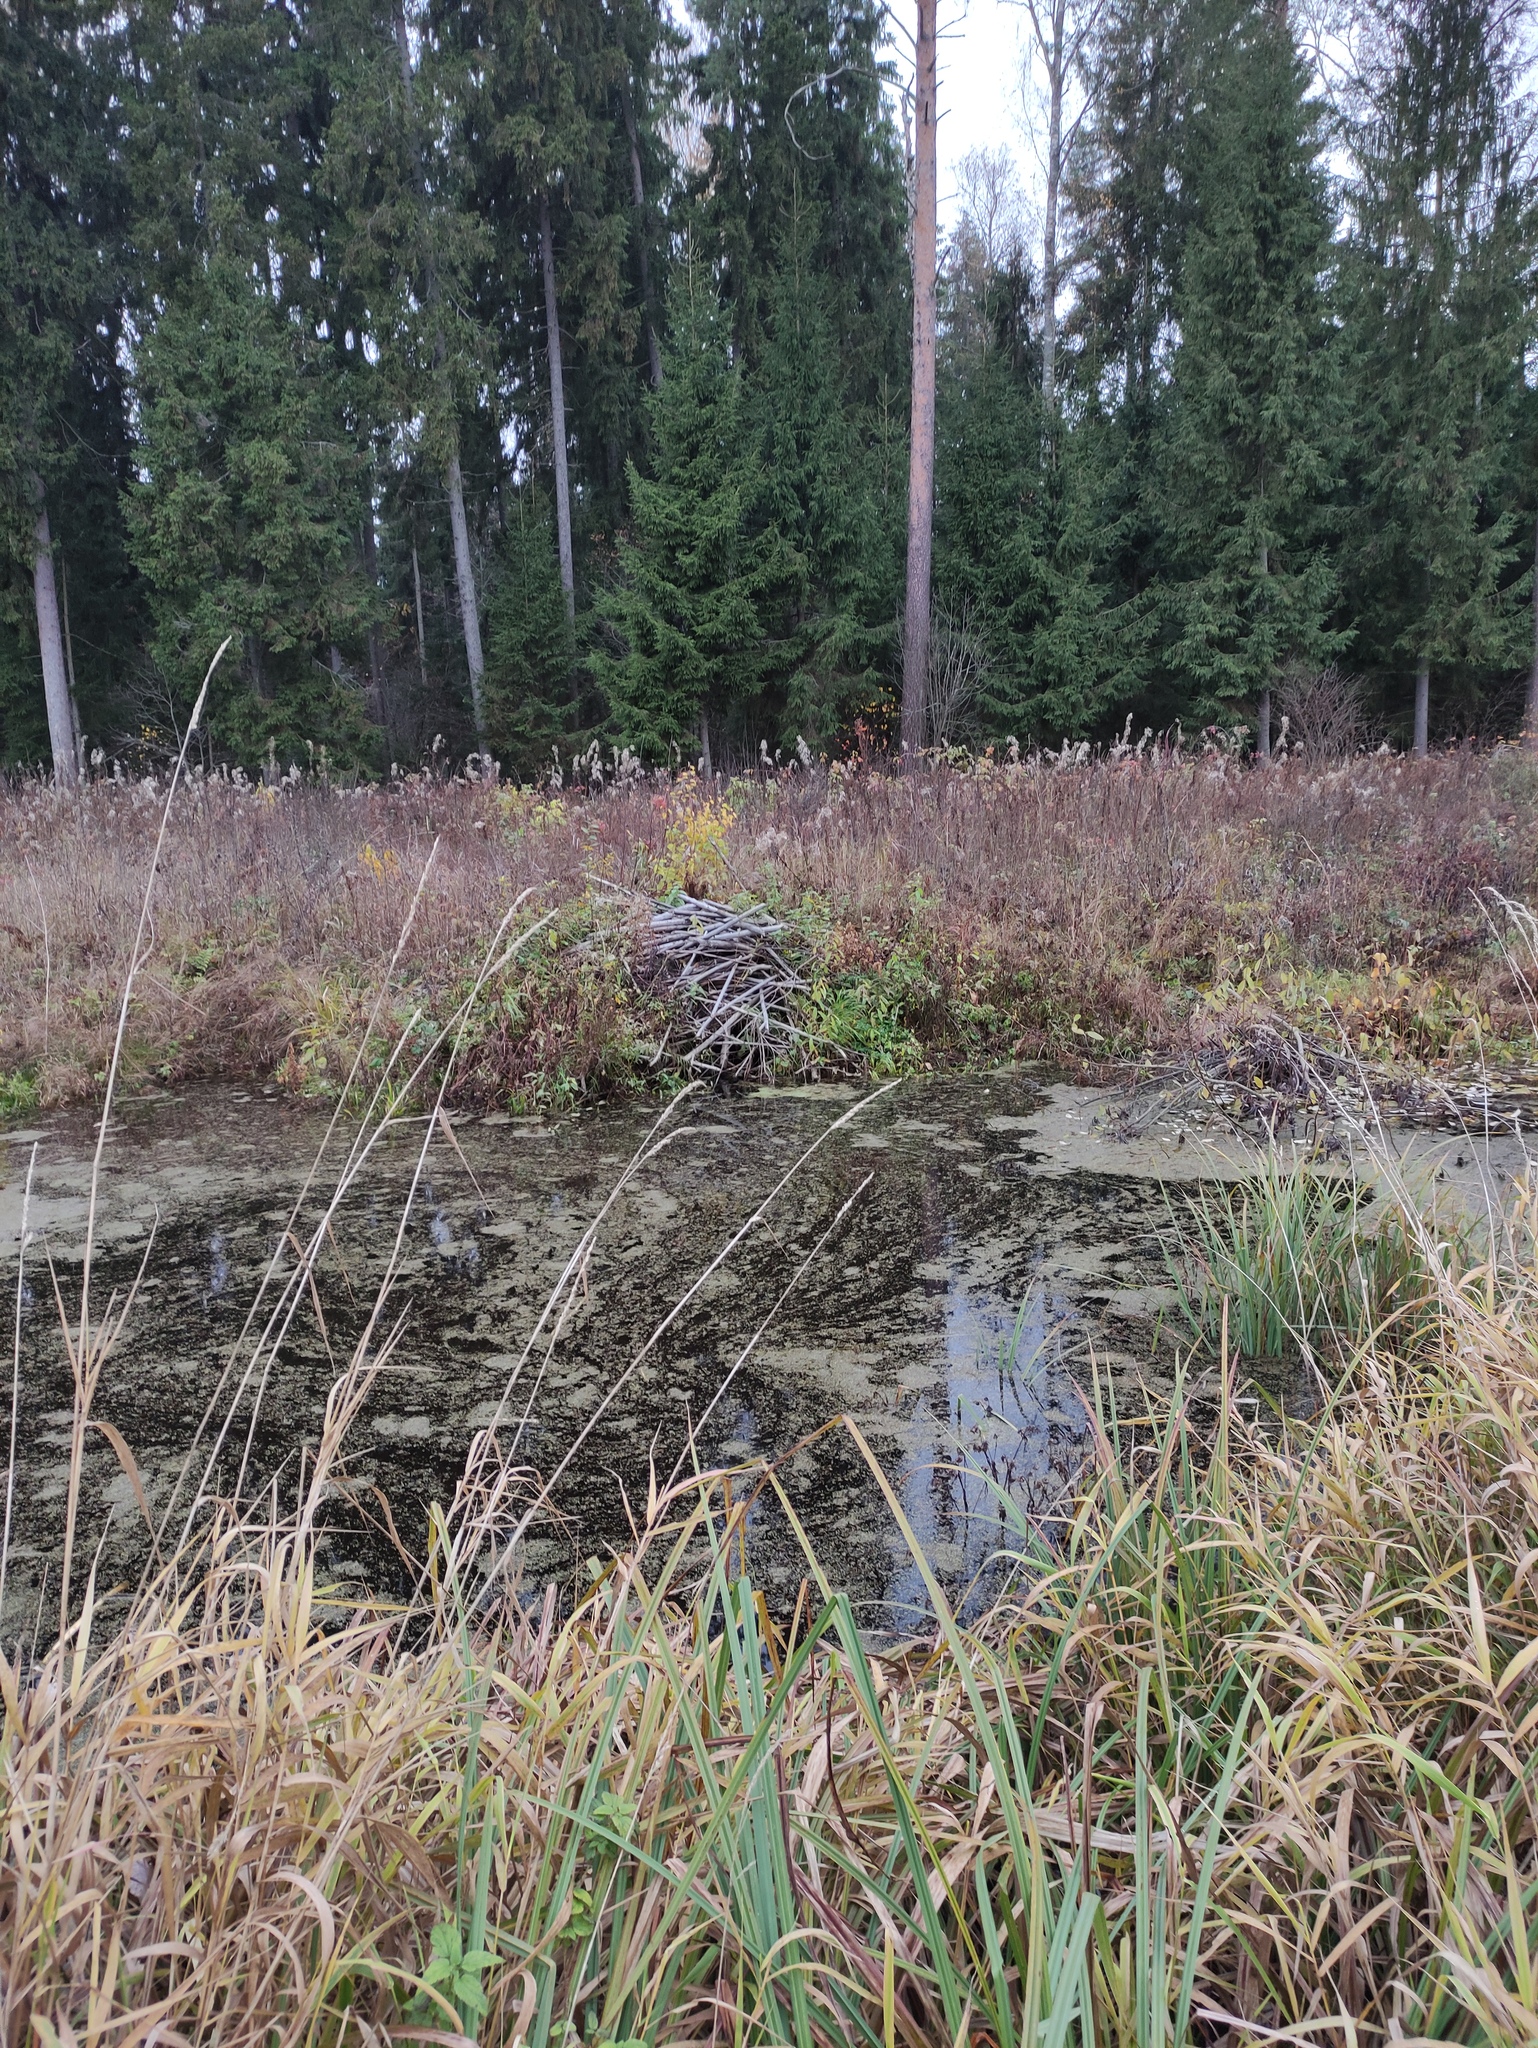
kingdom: Animalia
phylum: Chordata
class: Mammalia
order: Rodentia
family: Castoridae
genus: Castor
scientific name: Castor fiber
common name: Eurasian beaver
